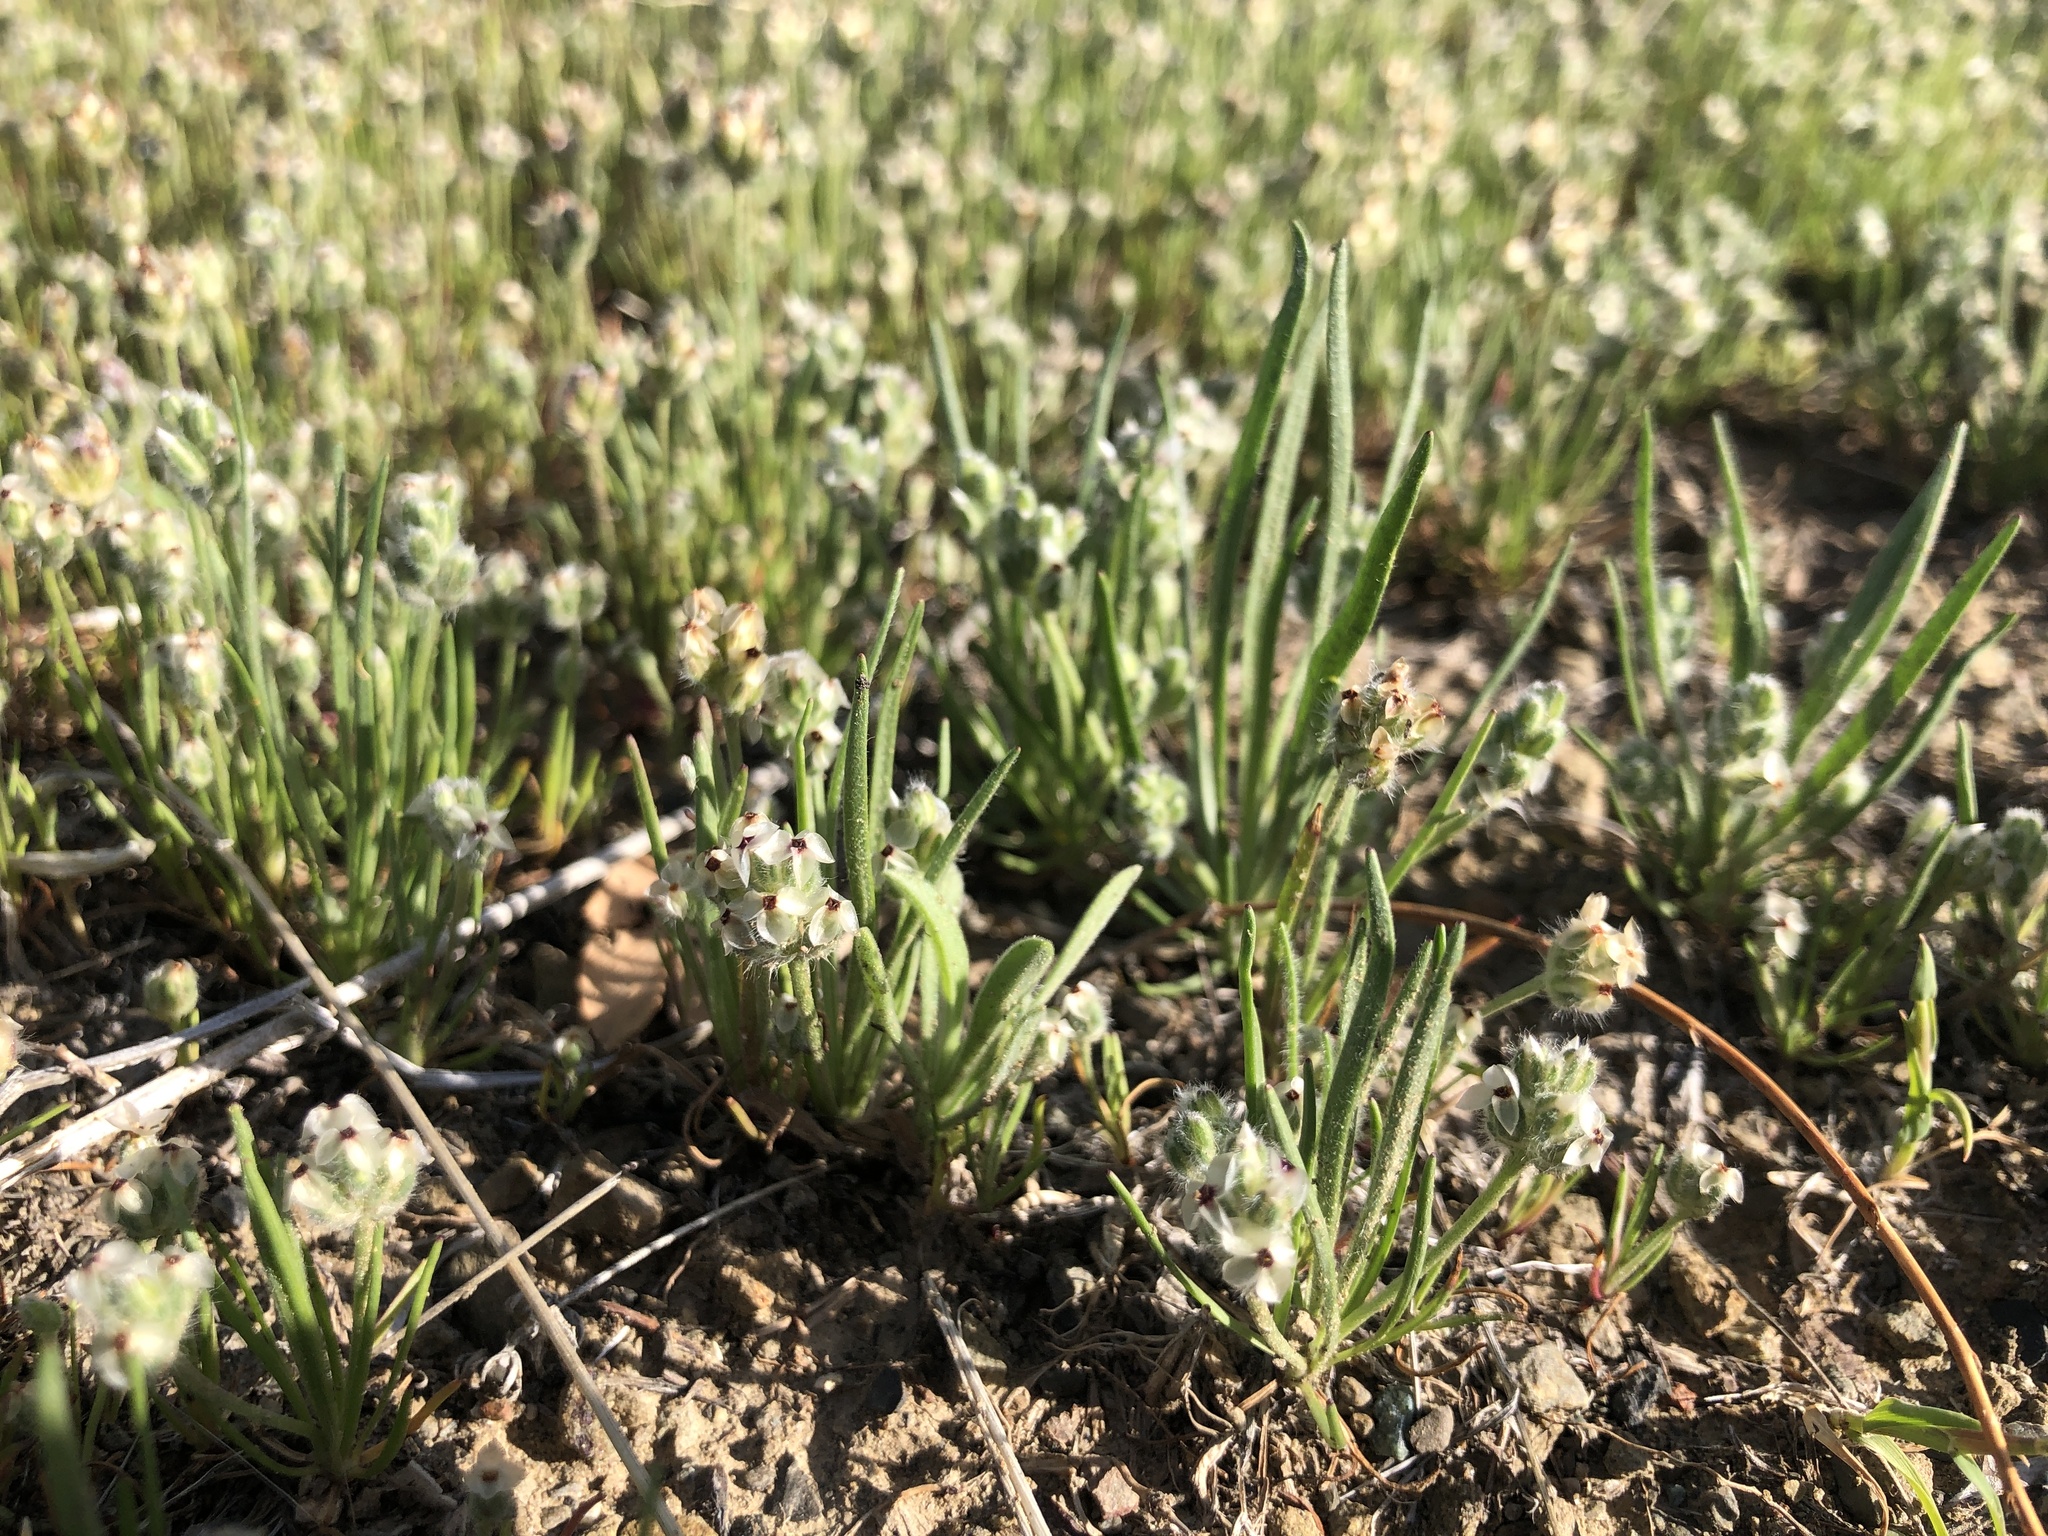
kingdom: Plantae
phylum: Tracheophyta
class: Magnoliopsida
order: Lamiales
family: Plantaginaceae
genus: Plantago
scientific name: Plantago erecta
